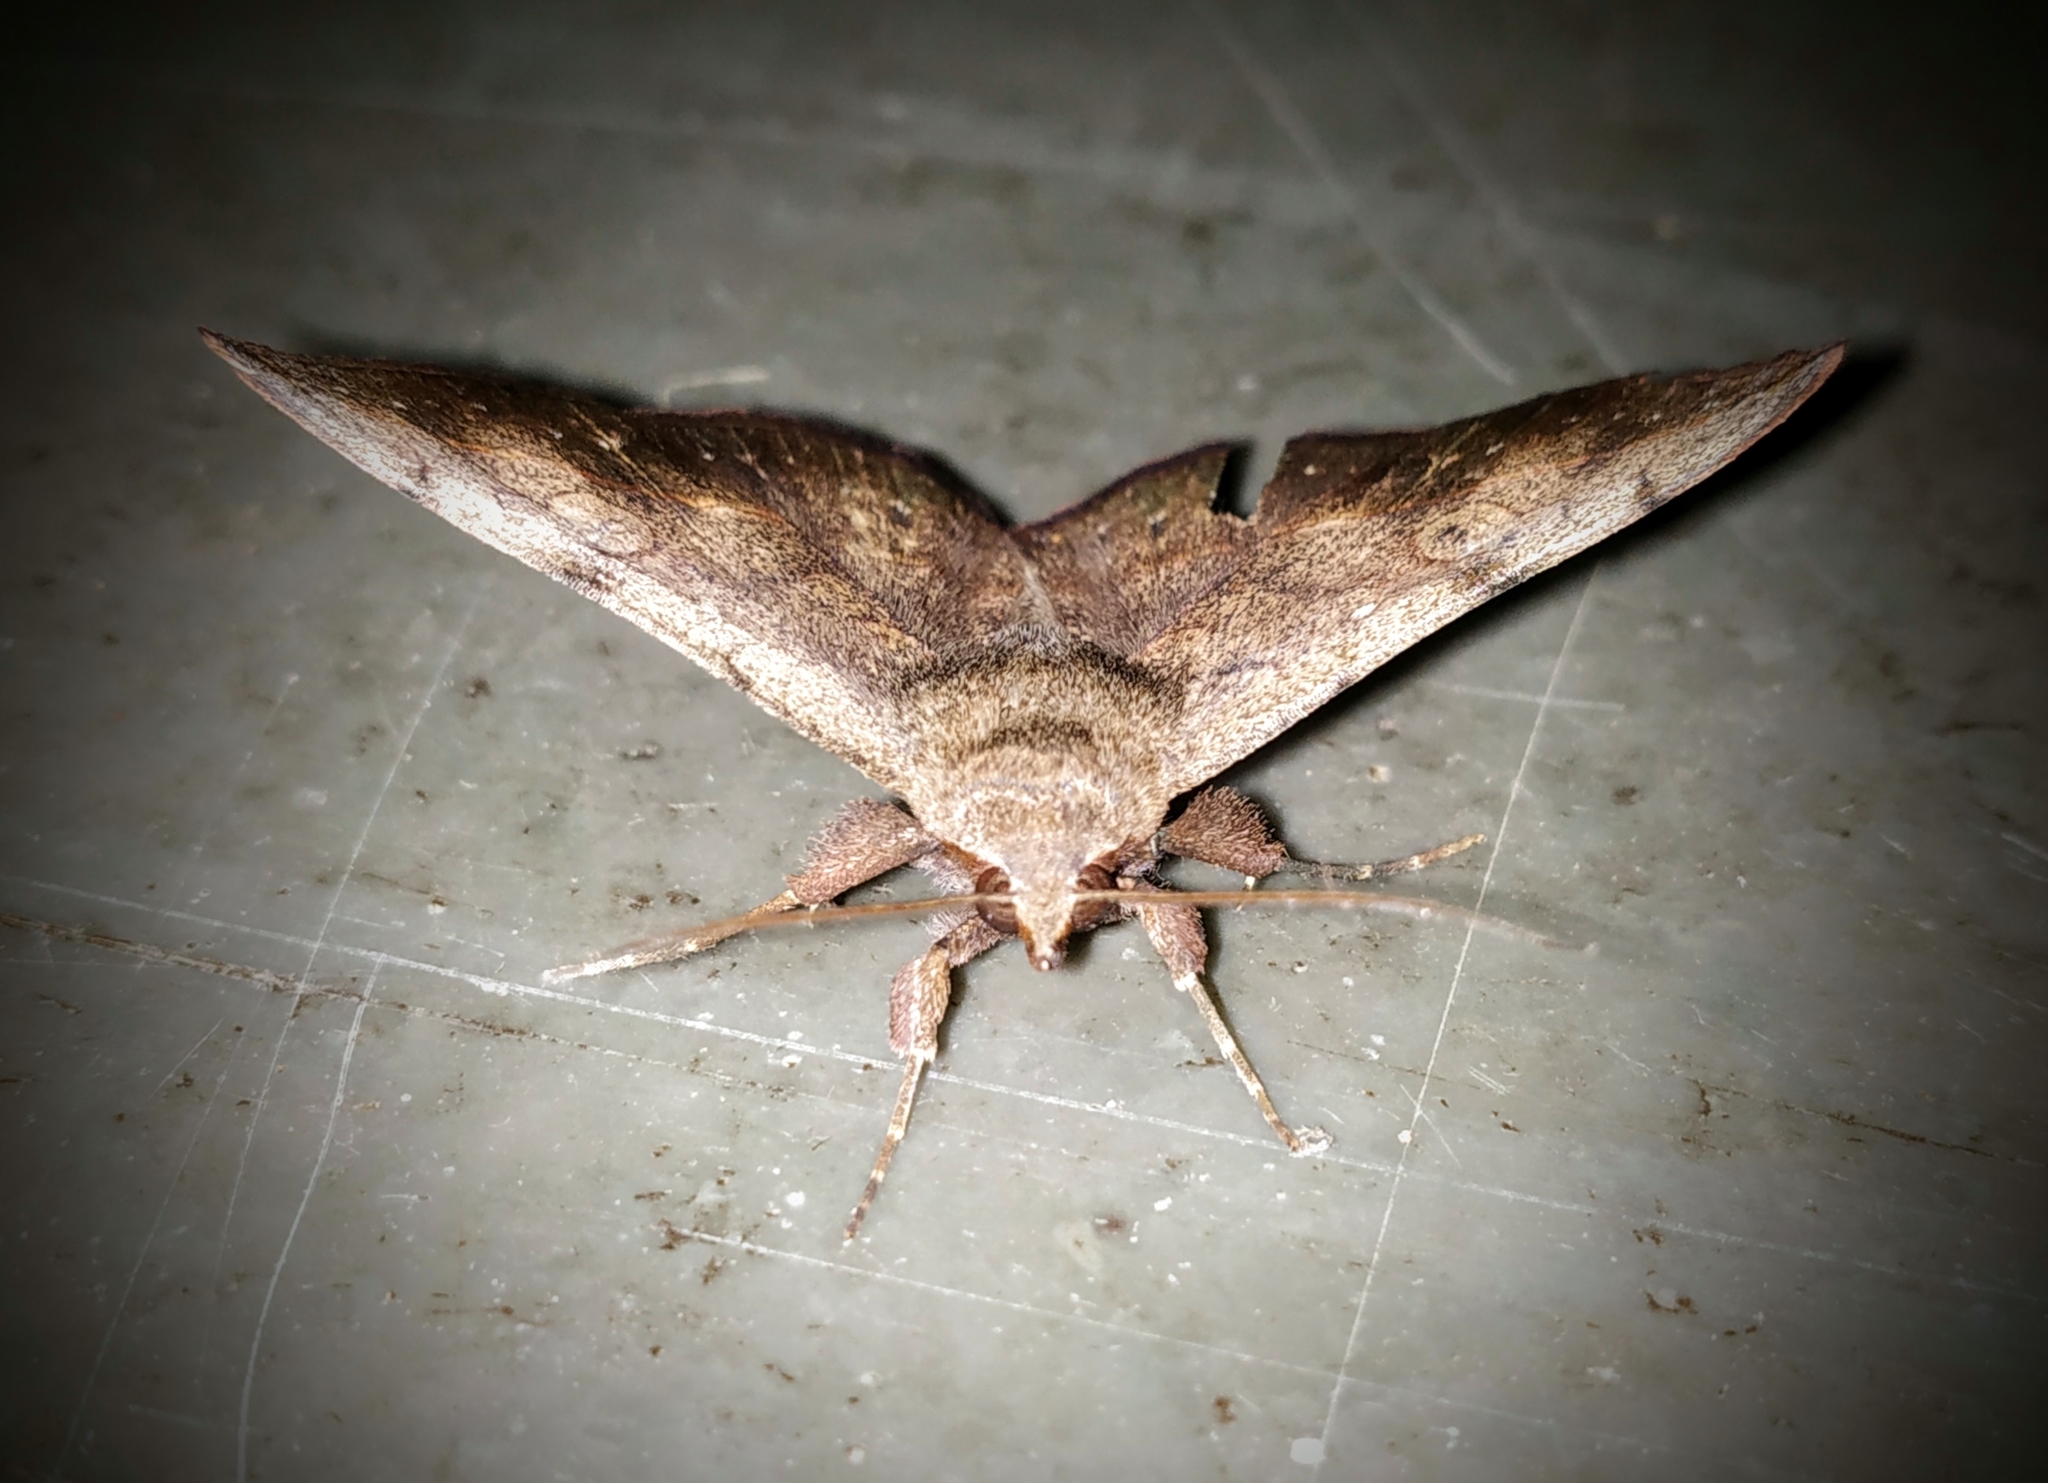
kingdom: Animalia
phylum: Arthropoda
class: Insecta
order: Lepidoptera
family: Erebidae
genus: Anticarsia
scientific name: Anticarsia irrorata
